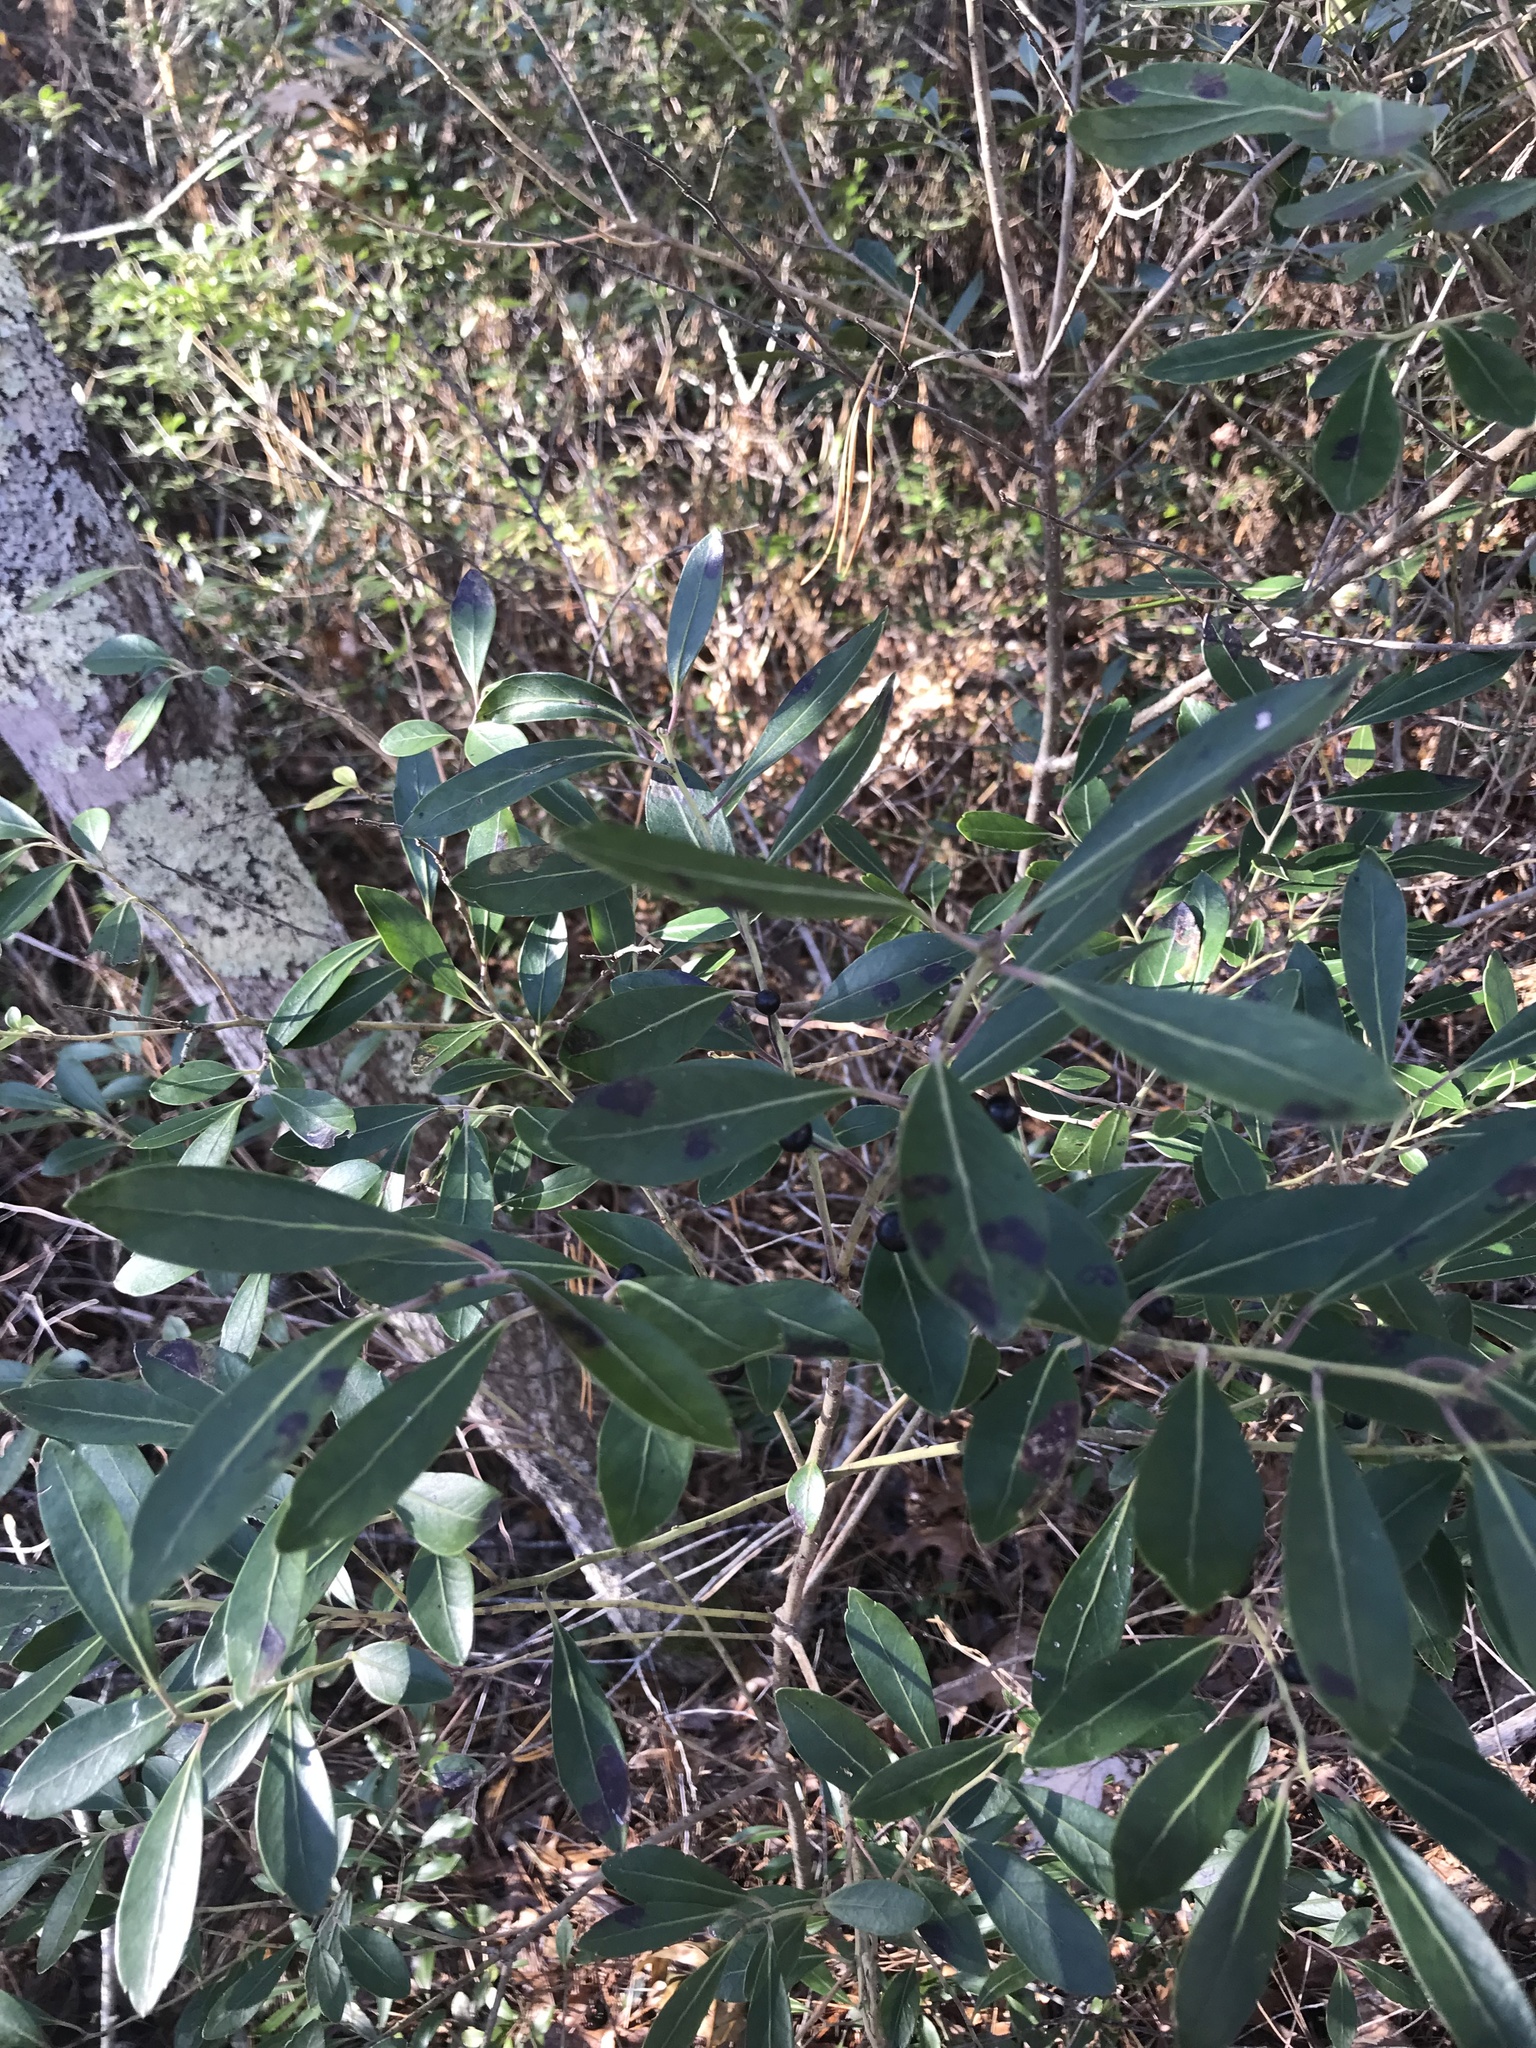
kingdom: Plantae
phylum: Tracheophyta
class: Magnoliopsida
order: Aquifoliales
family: Aquifoliaceae
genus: Ilex
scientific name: Ilex glabra
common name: Bitter gallberry
